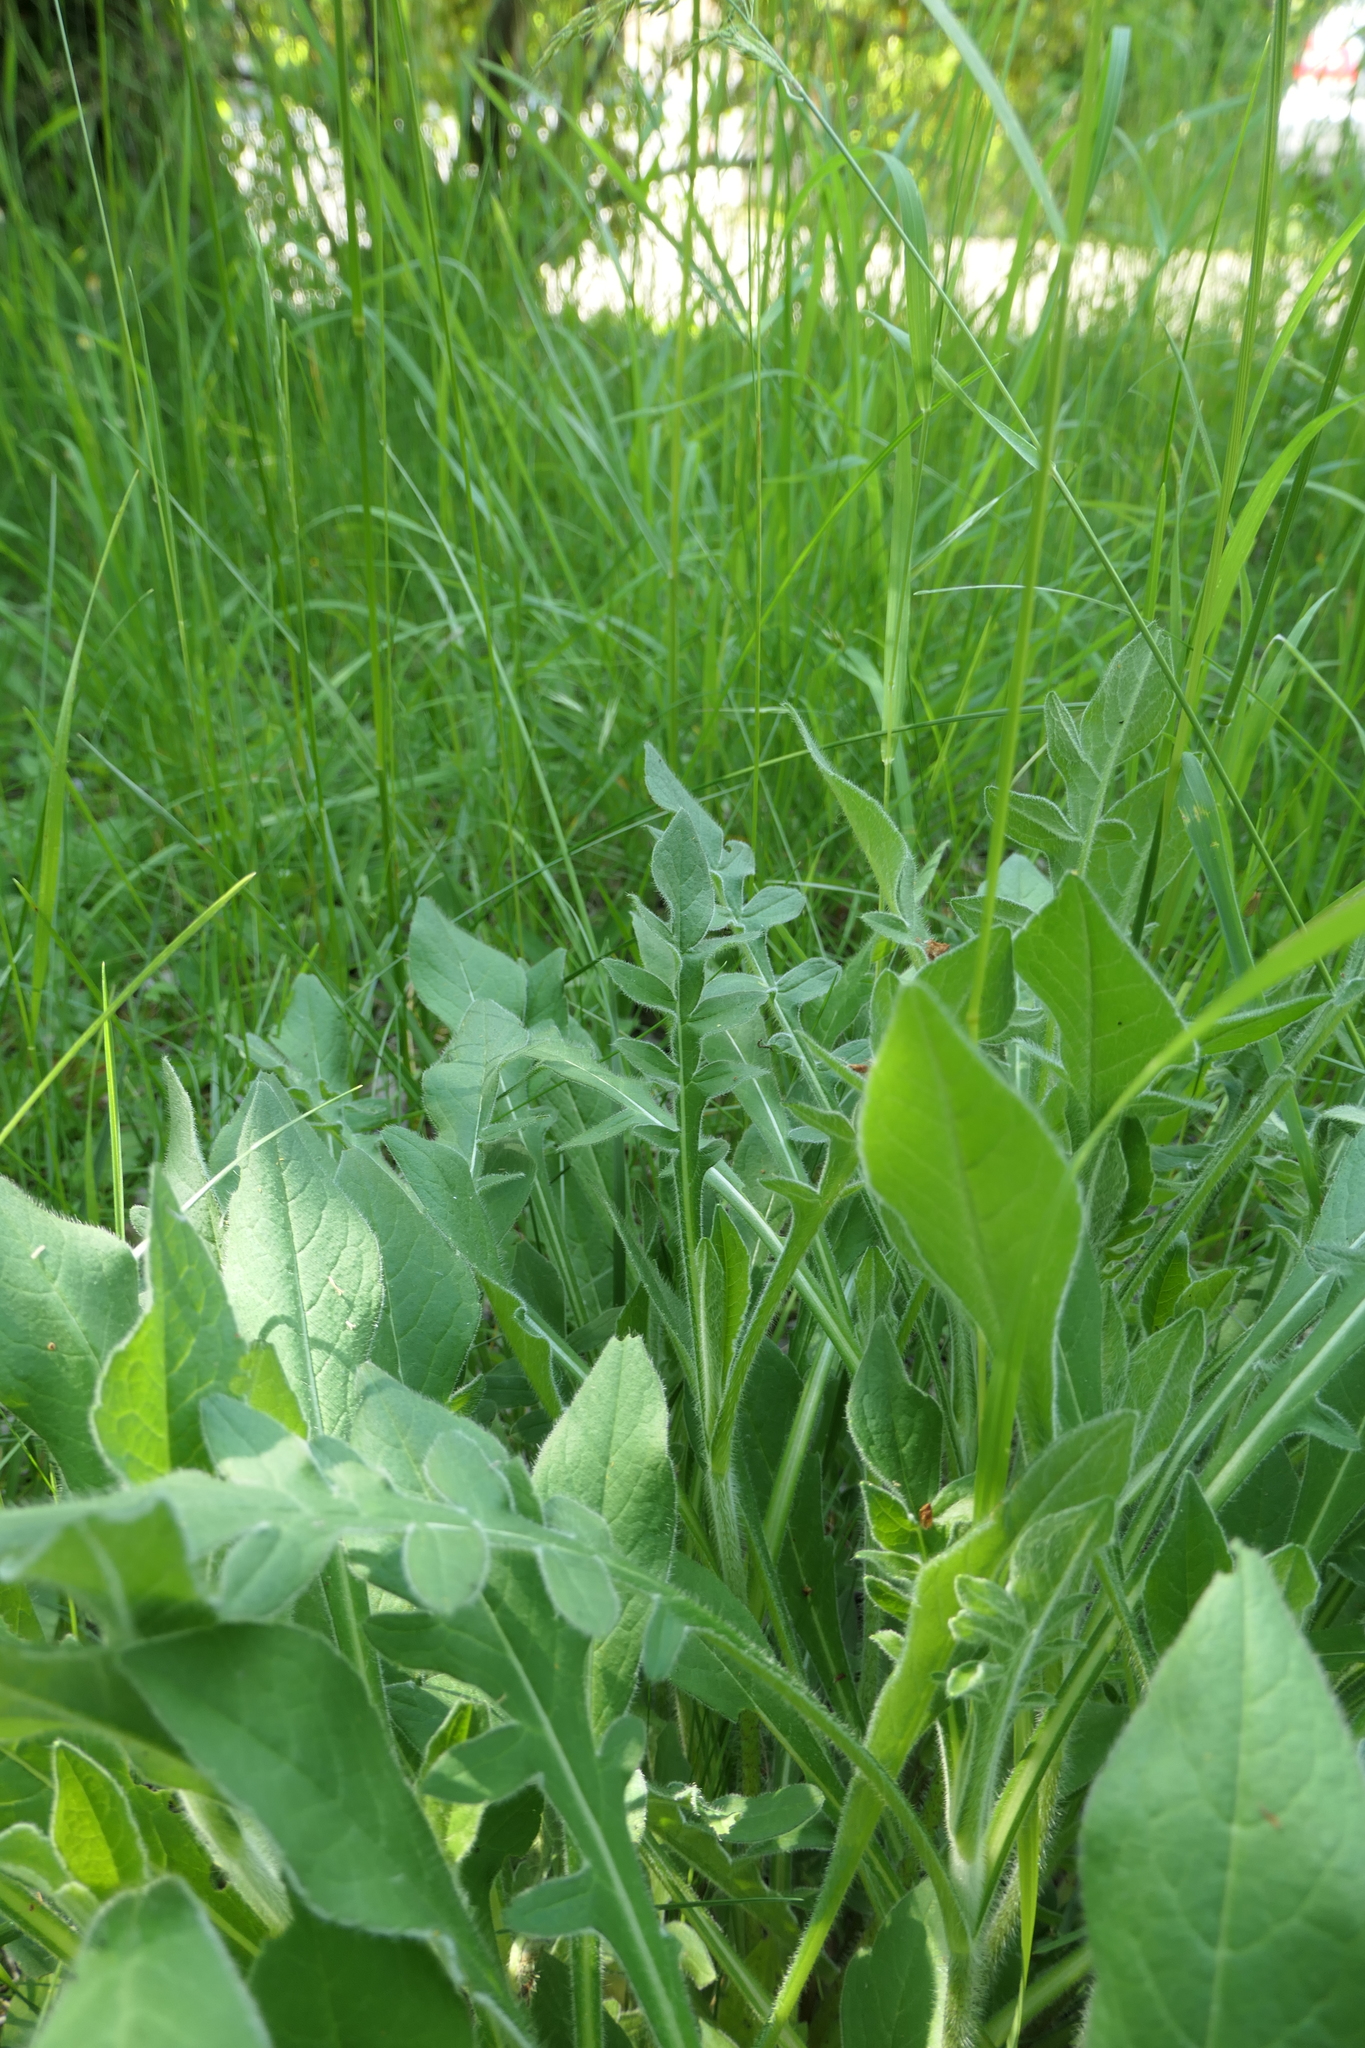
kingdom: Plantae
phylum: Tracheophyta
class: Magnoliopsida
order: Dipsacales
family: Caprifoliaceae
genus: Knautia
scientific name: Knautia arvensis
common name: Field scabiosa
